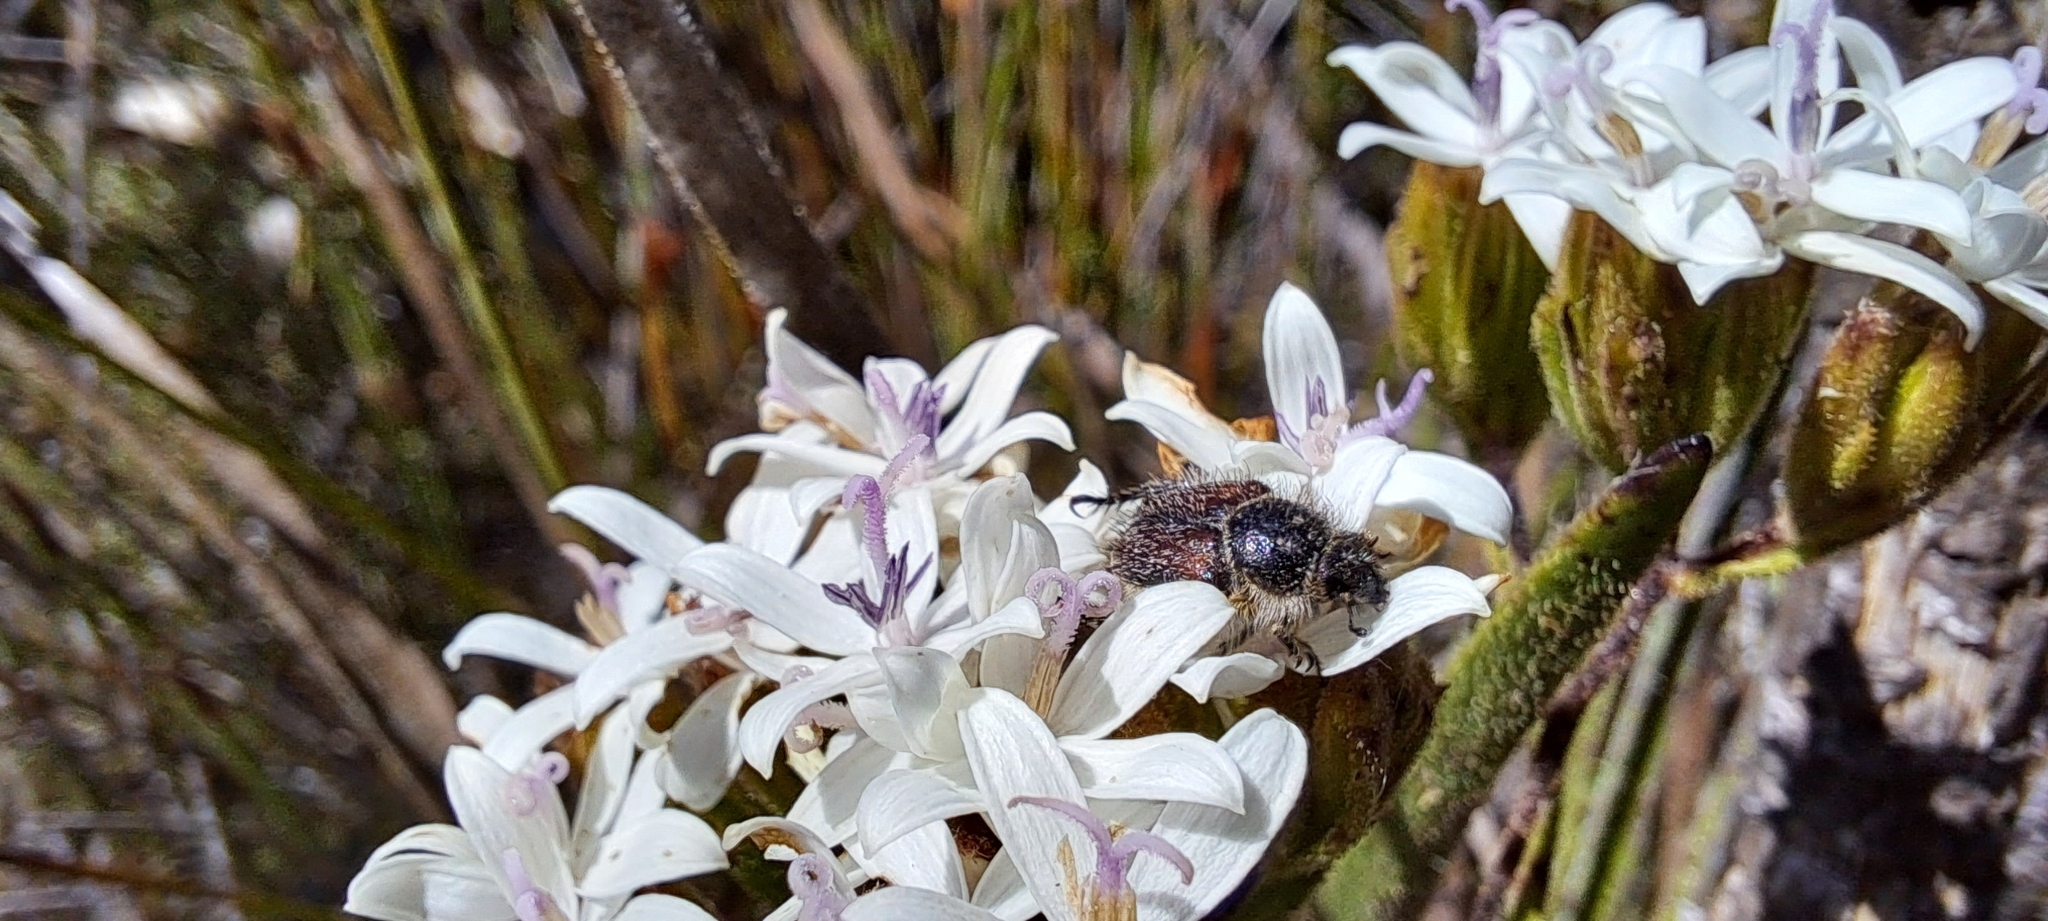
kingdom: Plantae
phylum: Tracheophyta
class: Magnoliopsida
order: Asterales
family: Asteraceae
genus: Corymbium
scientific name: Corymbium villosum
